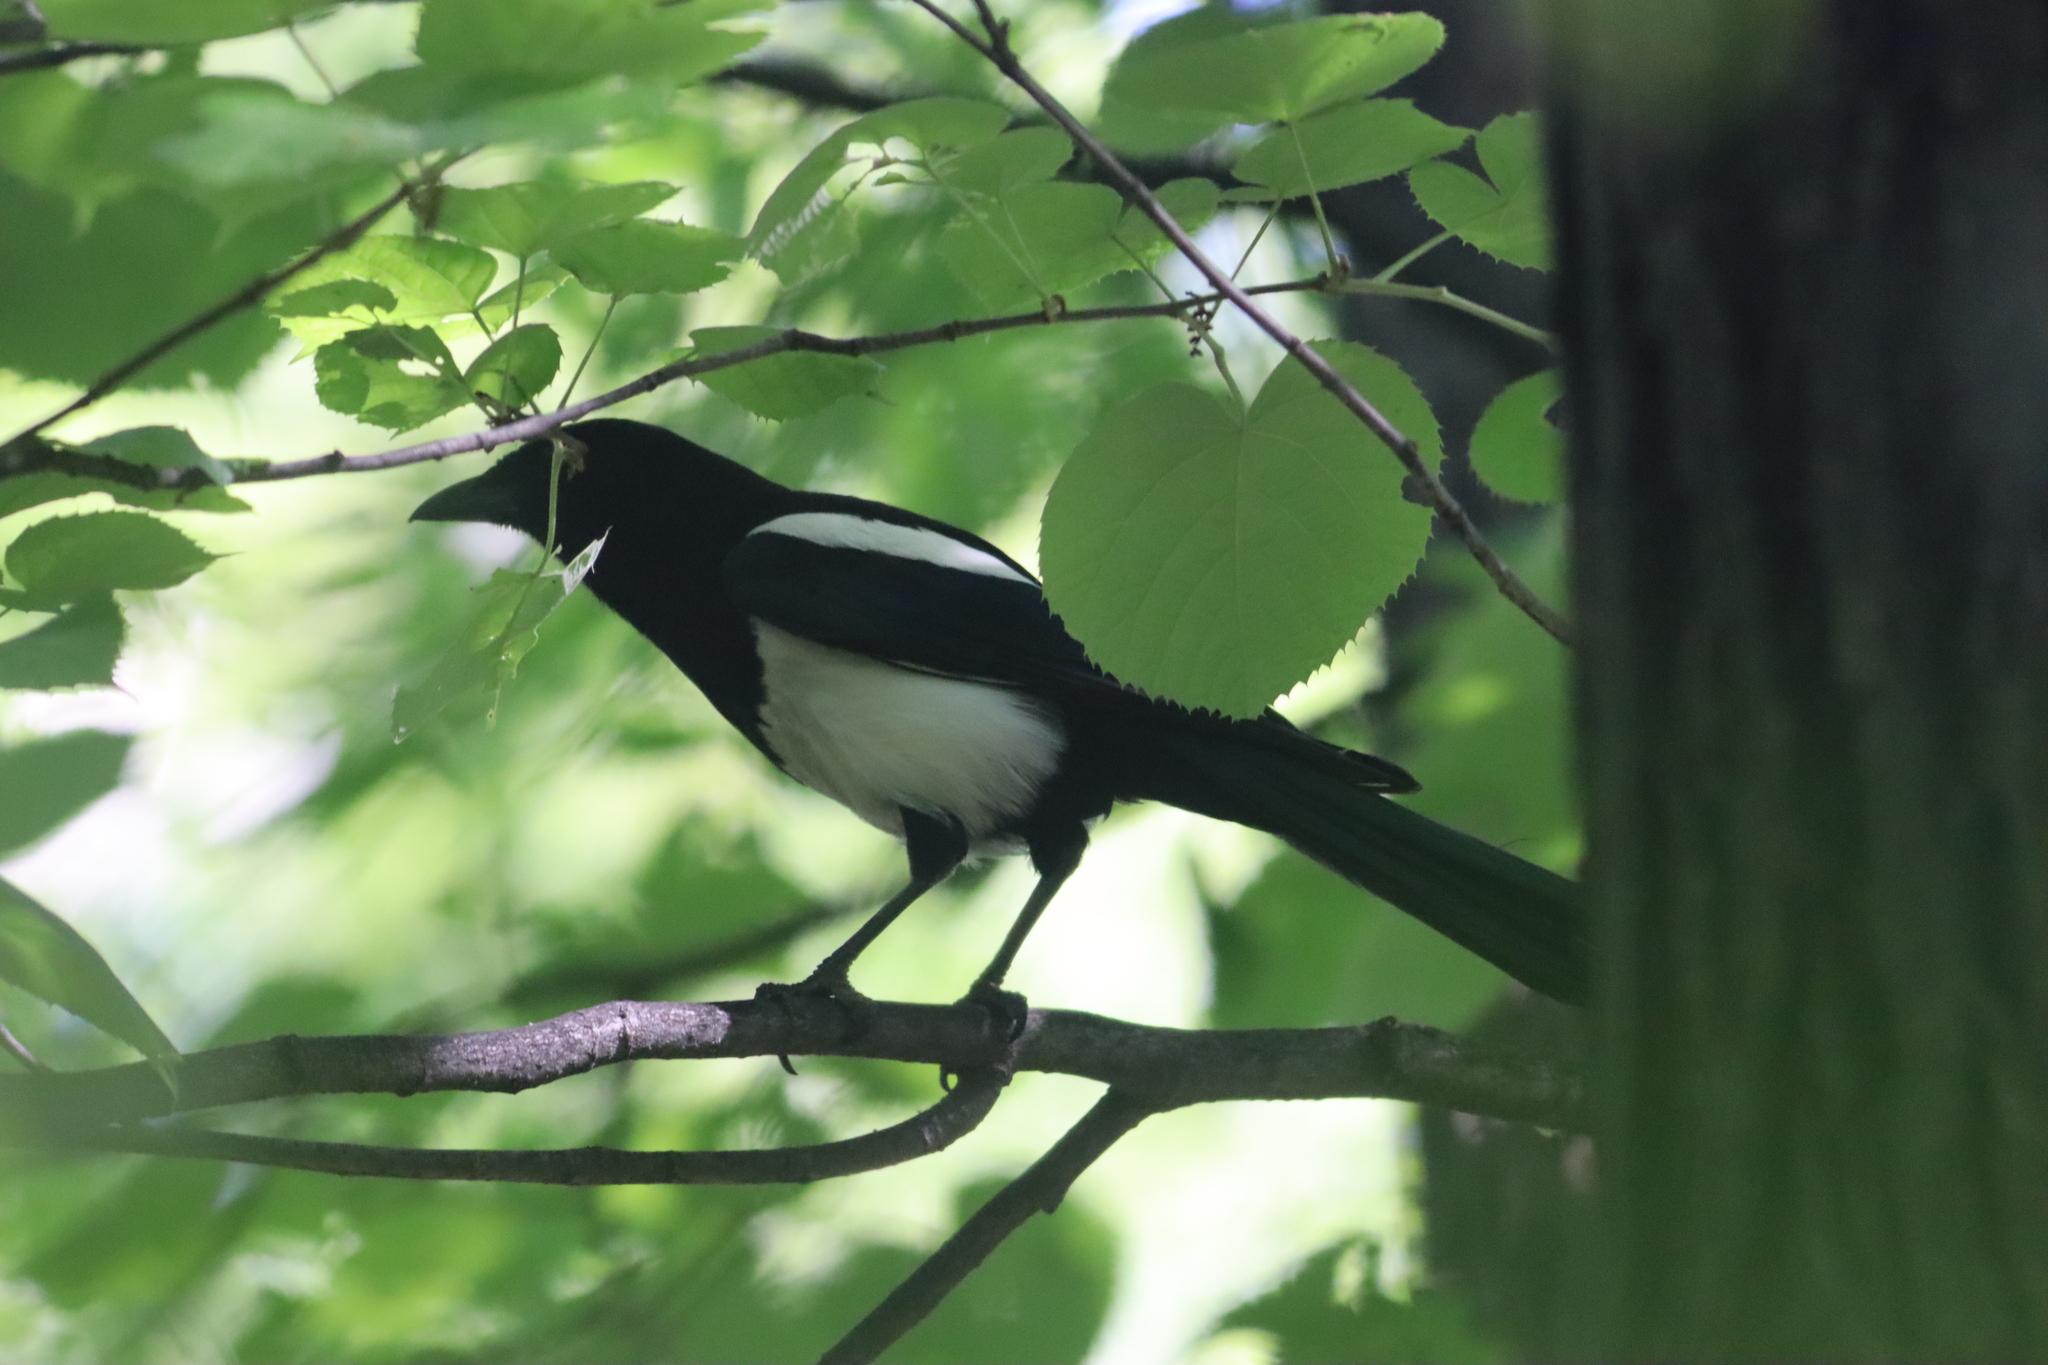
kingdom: Animalia
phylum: Chordata
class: Aves
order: Passeriformes
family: Corvidae
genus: Pica
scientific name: Pica serica
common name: Oriental magpie
